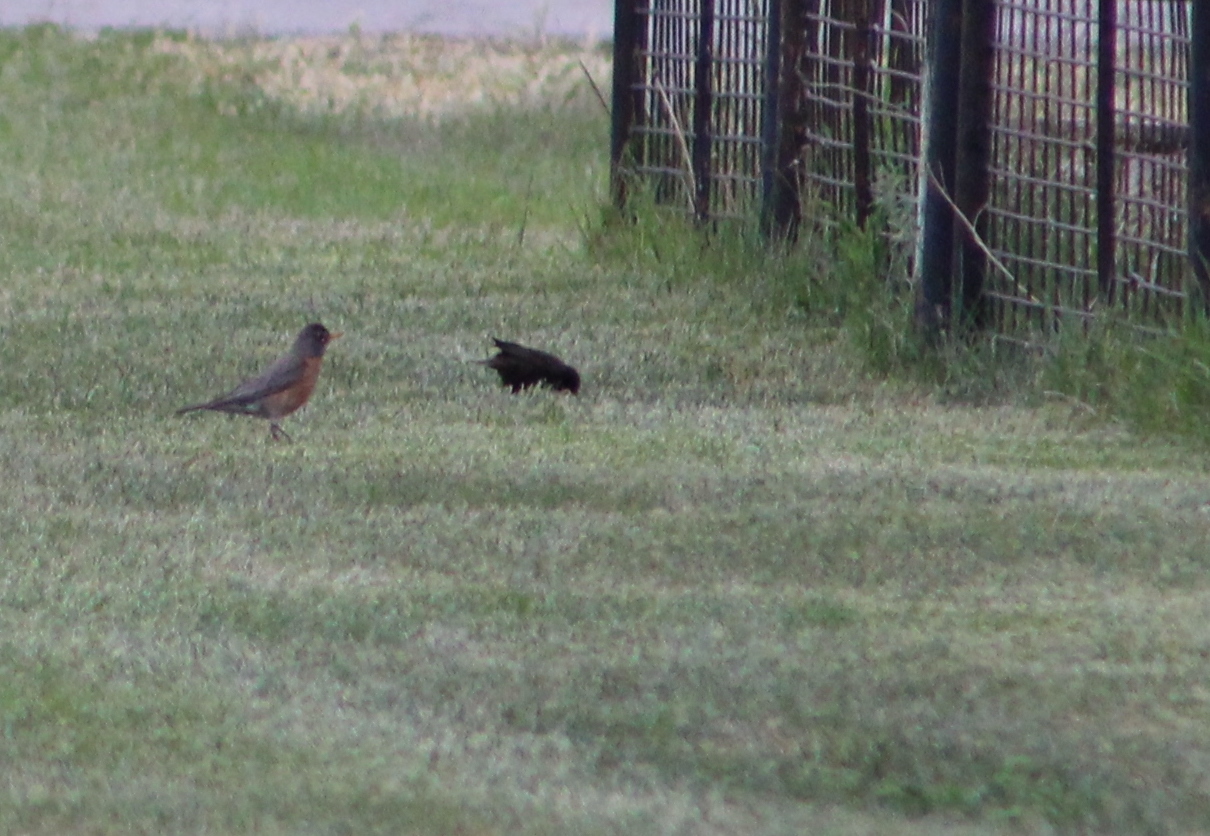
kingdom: Animalia
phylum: Chordata
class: Aves
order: Passeriformes
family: Turdidae
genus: Turdus
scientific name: Turdus migratorius
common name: American robin
